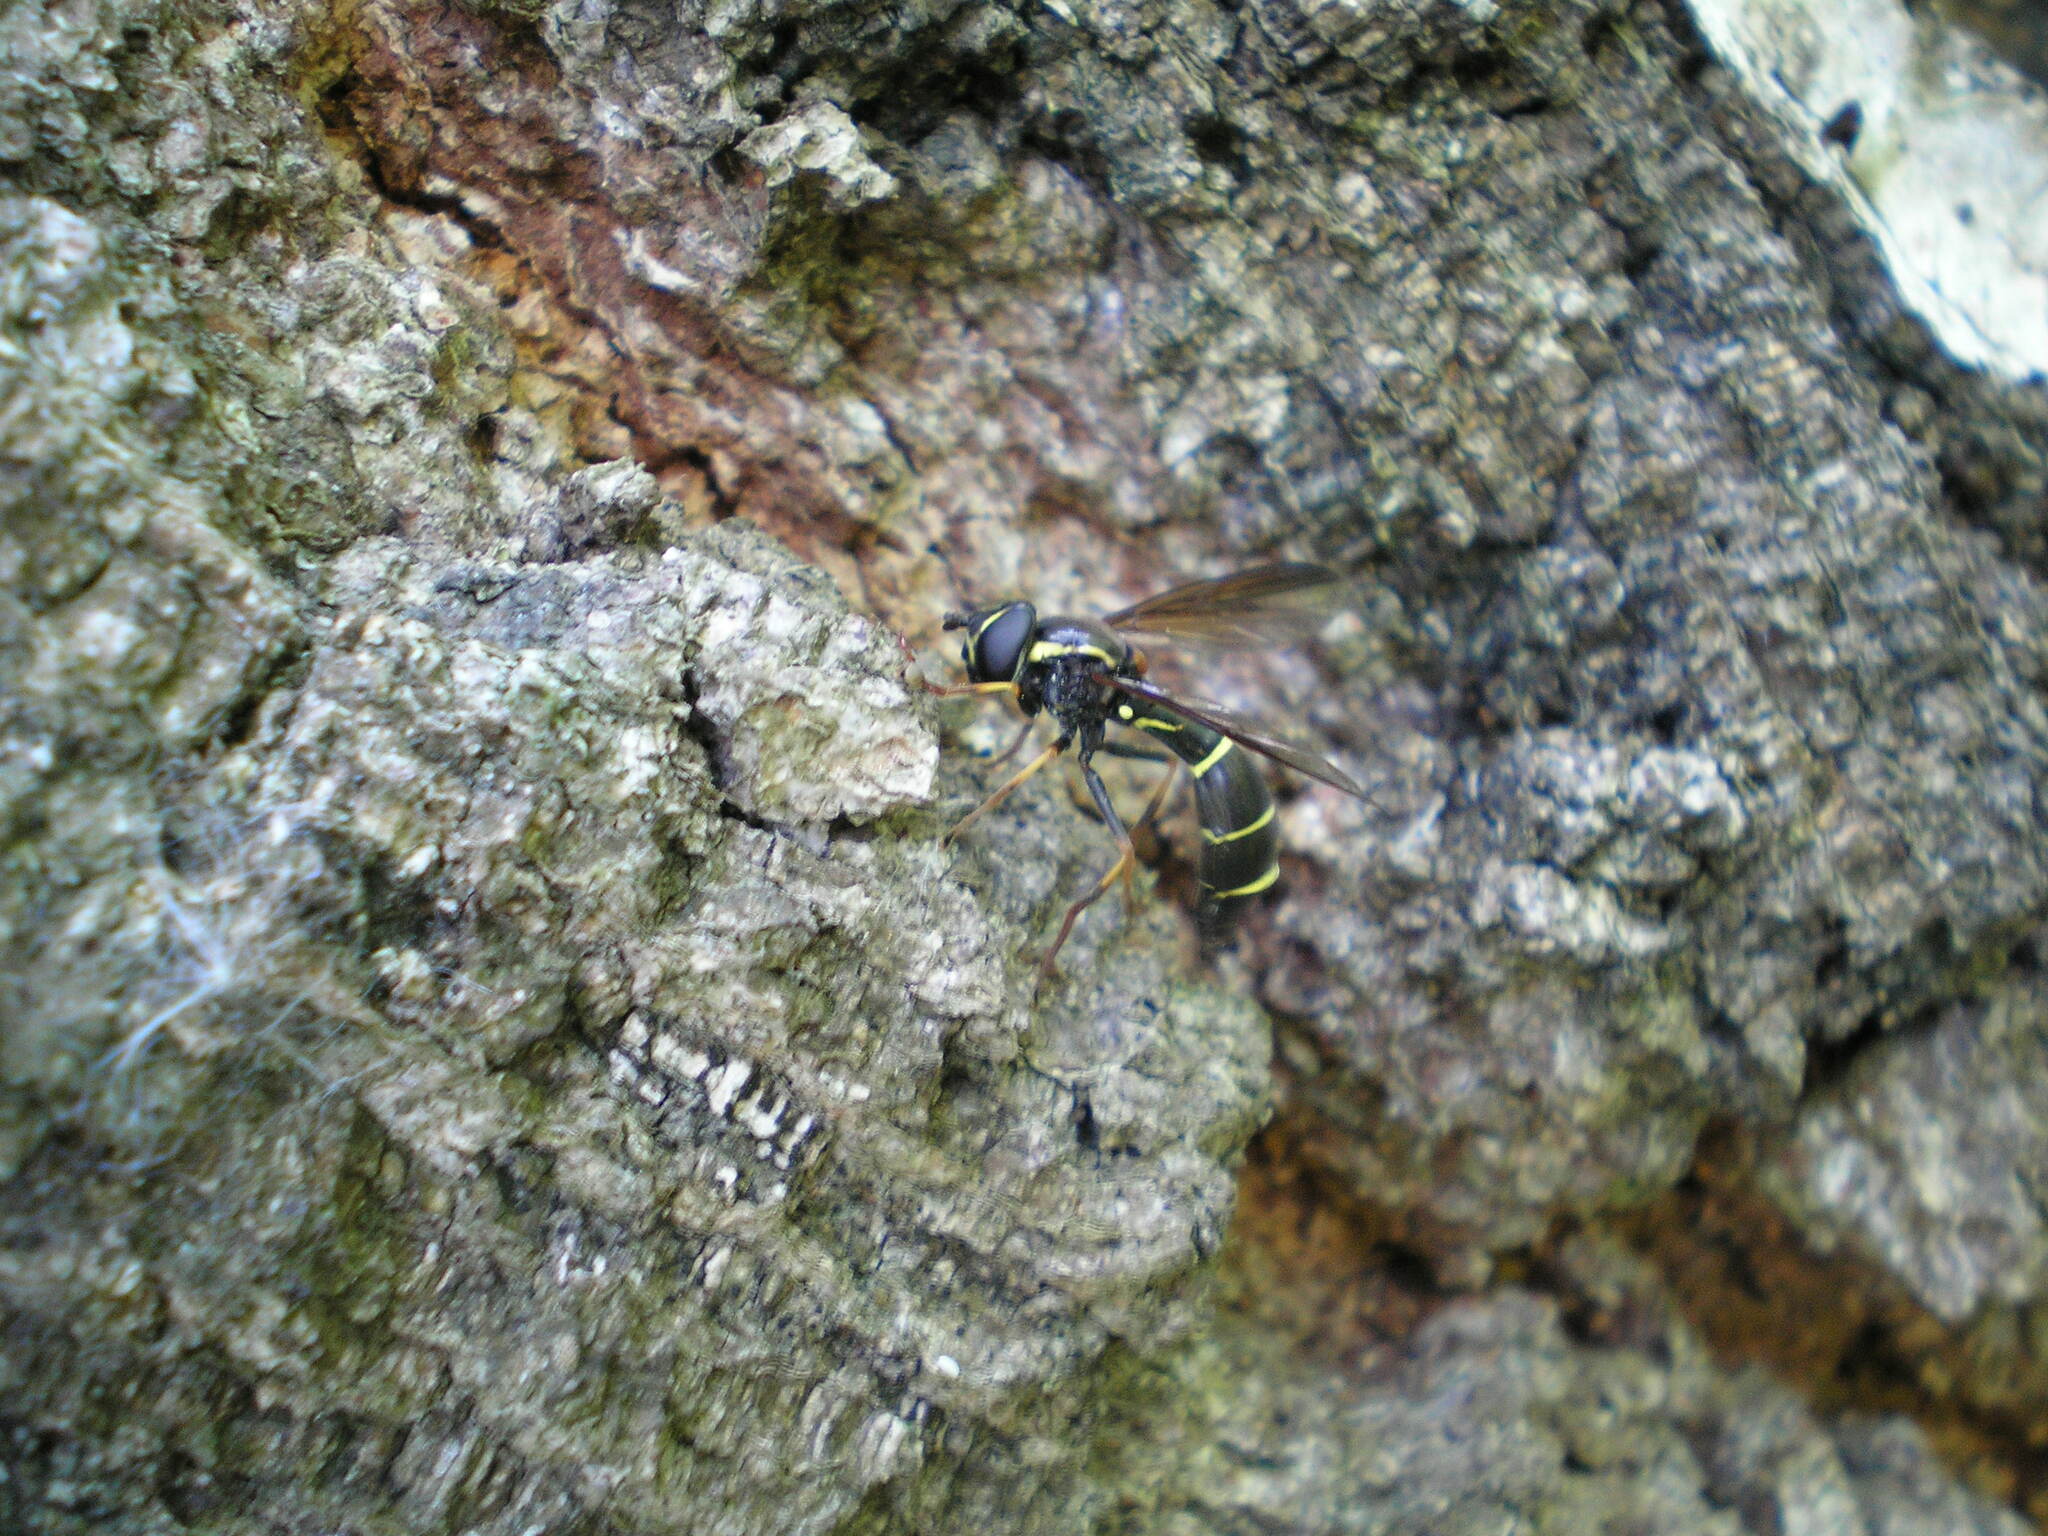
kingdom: Animalia
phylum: Arthropoda
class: Insecta
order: Diptera
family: Syrphidae
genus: Doros
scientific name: Doros profuges
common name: Phantom hoverfly
